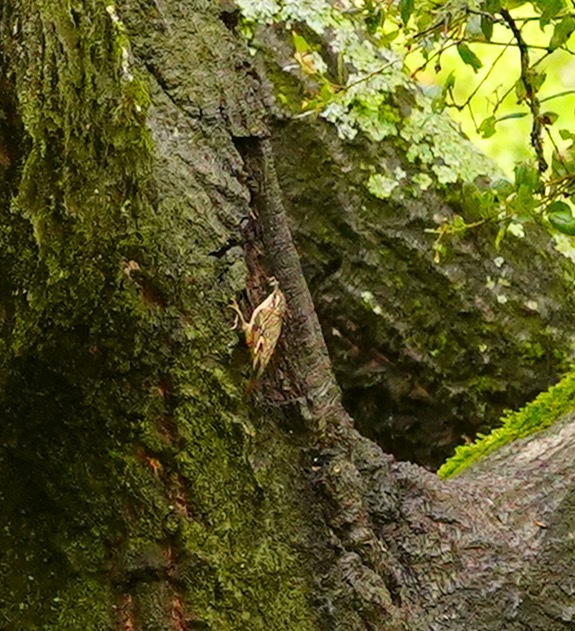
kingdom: Animalia
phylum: Chordata
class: Aves
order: Passeriformes
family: Certhiidae
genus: Certhia
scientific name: Certhia americana
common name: Brown creeper
